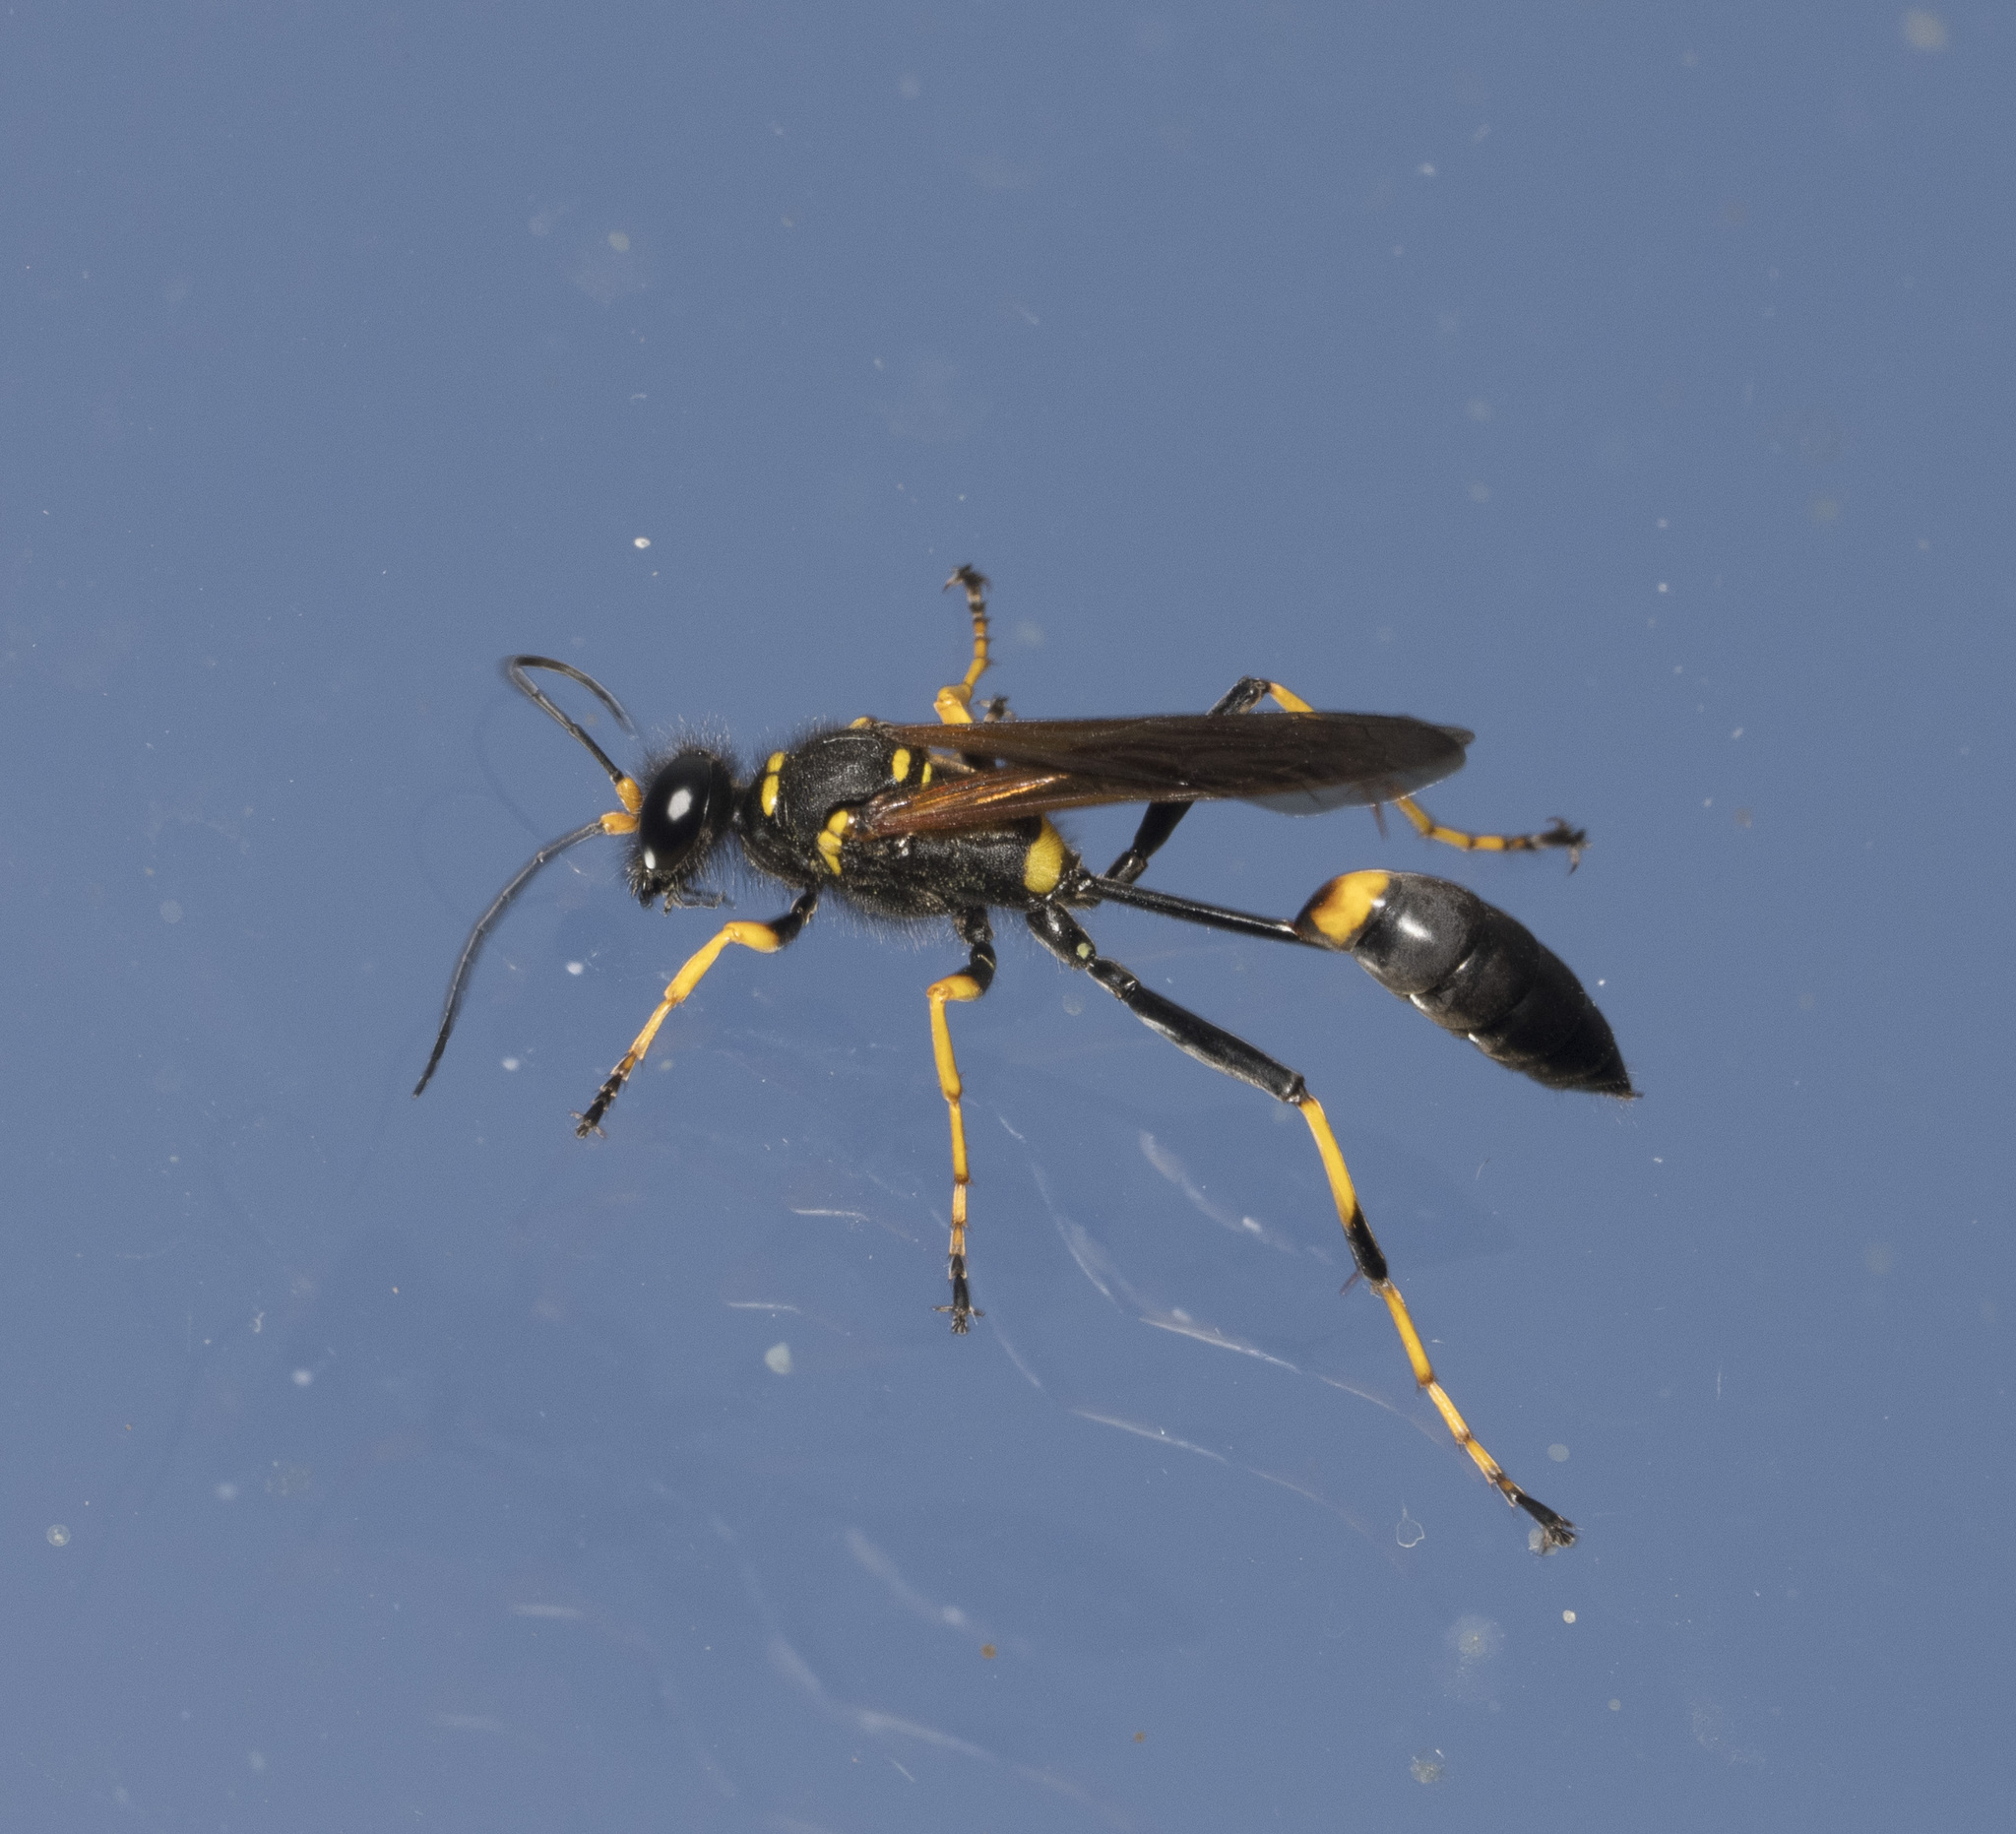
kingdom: Animalia
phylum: Arthropoda
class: Insecta
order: Hymenoptera
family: Sphecidae
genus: Sceliphron
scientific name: Sceliphron caementarium
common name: Mud dauber
